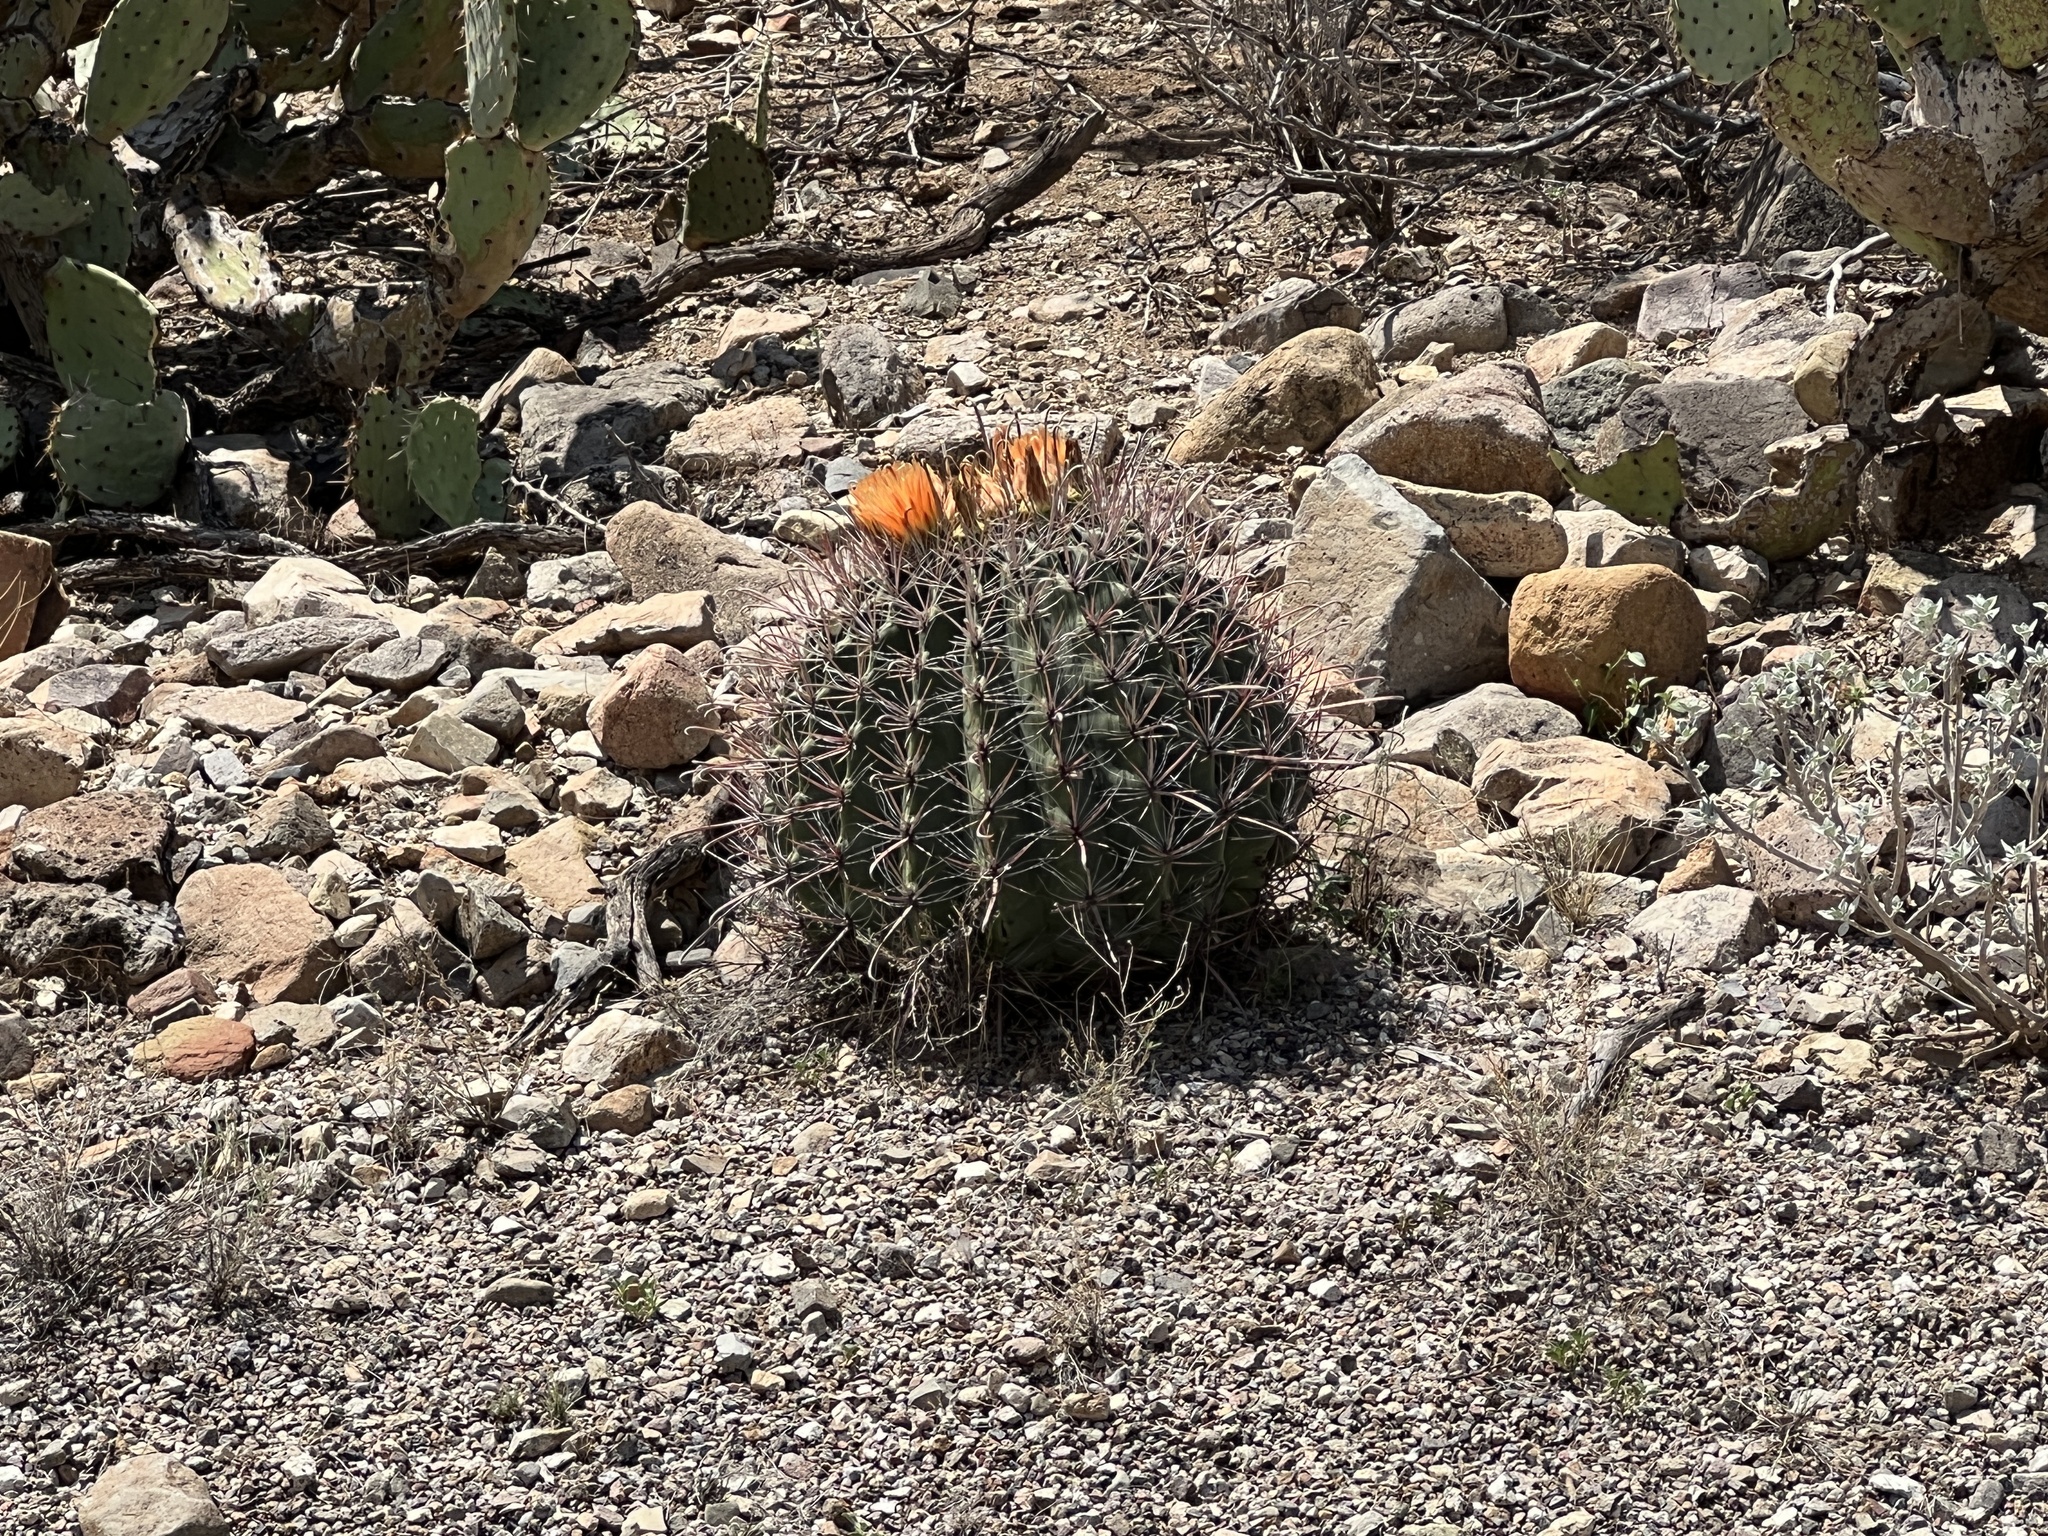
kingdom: Plantae
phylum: Tracheophyta
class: Magnoliopsida
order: Caryophyllales
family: Cactaceae
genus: Ferocactus
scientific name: Ferocactus wislizeni
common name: Candy barrel cactus
